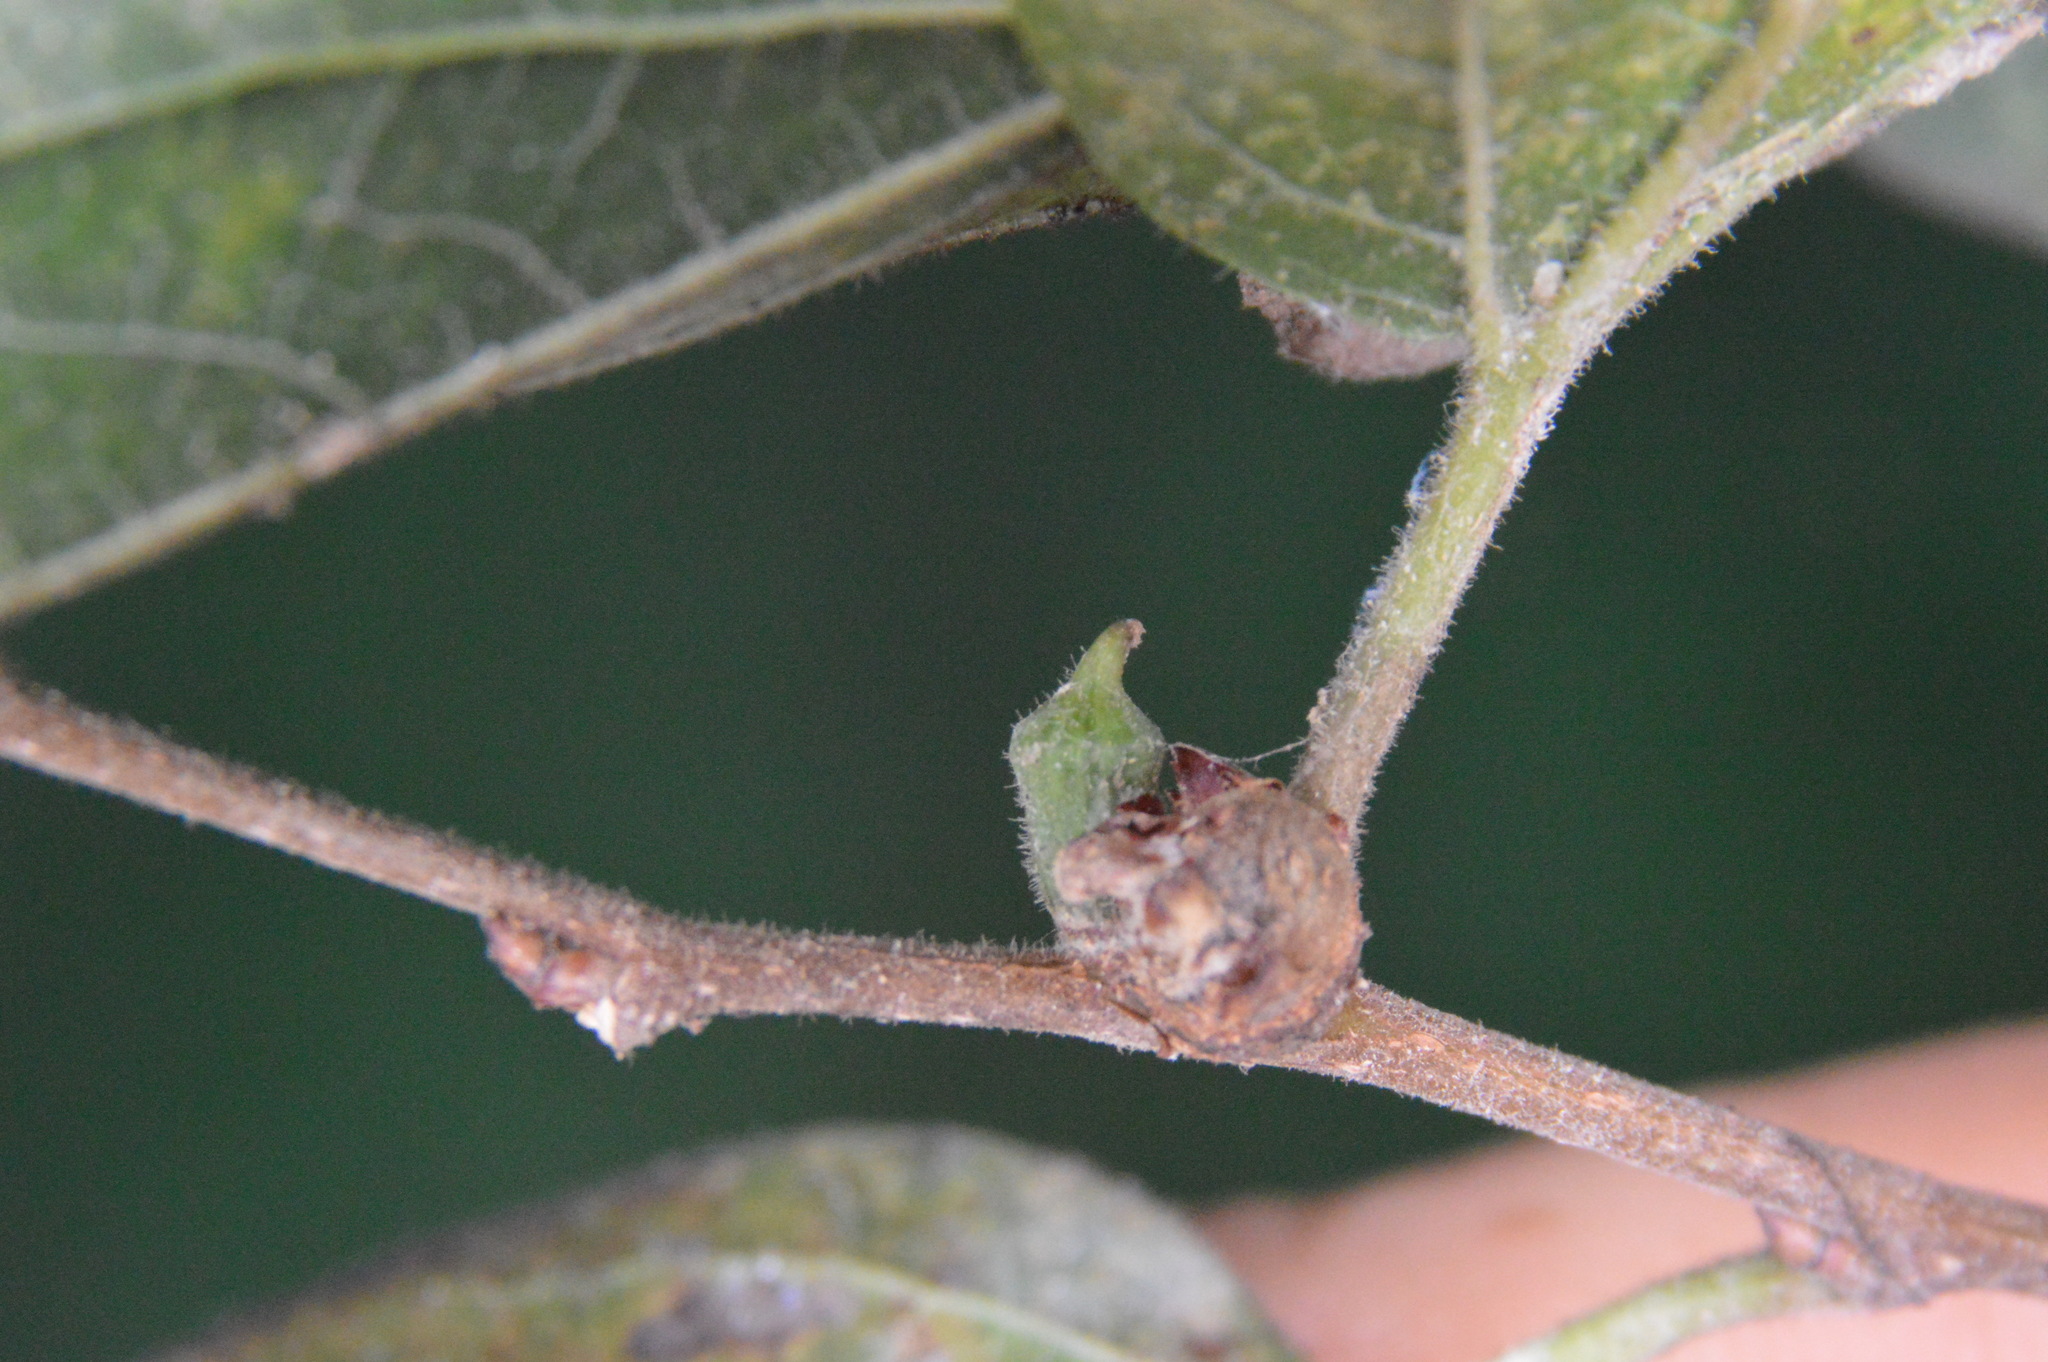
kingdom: Animalia
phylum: Arthropoda
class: Insecta
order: Diptera
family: Cecidomyiidae
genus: Celticecis
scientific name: Celticecis ramicola
